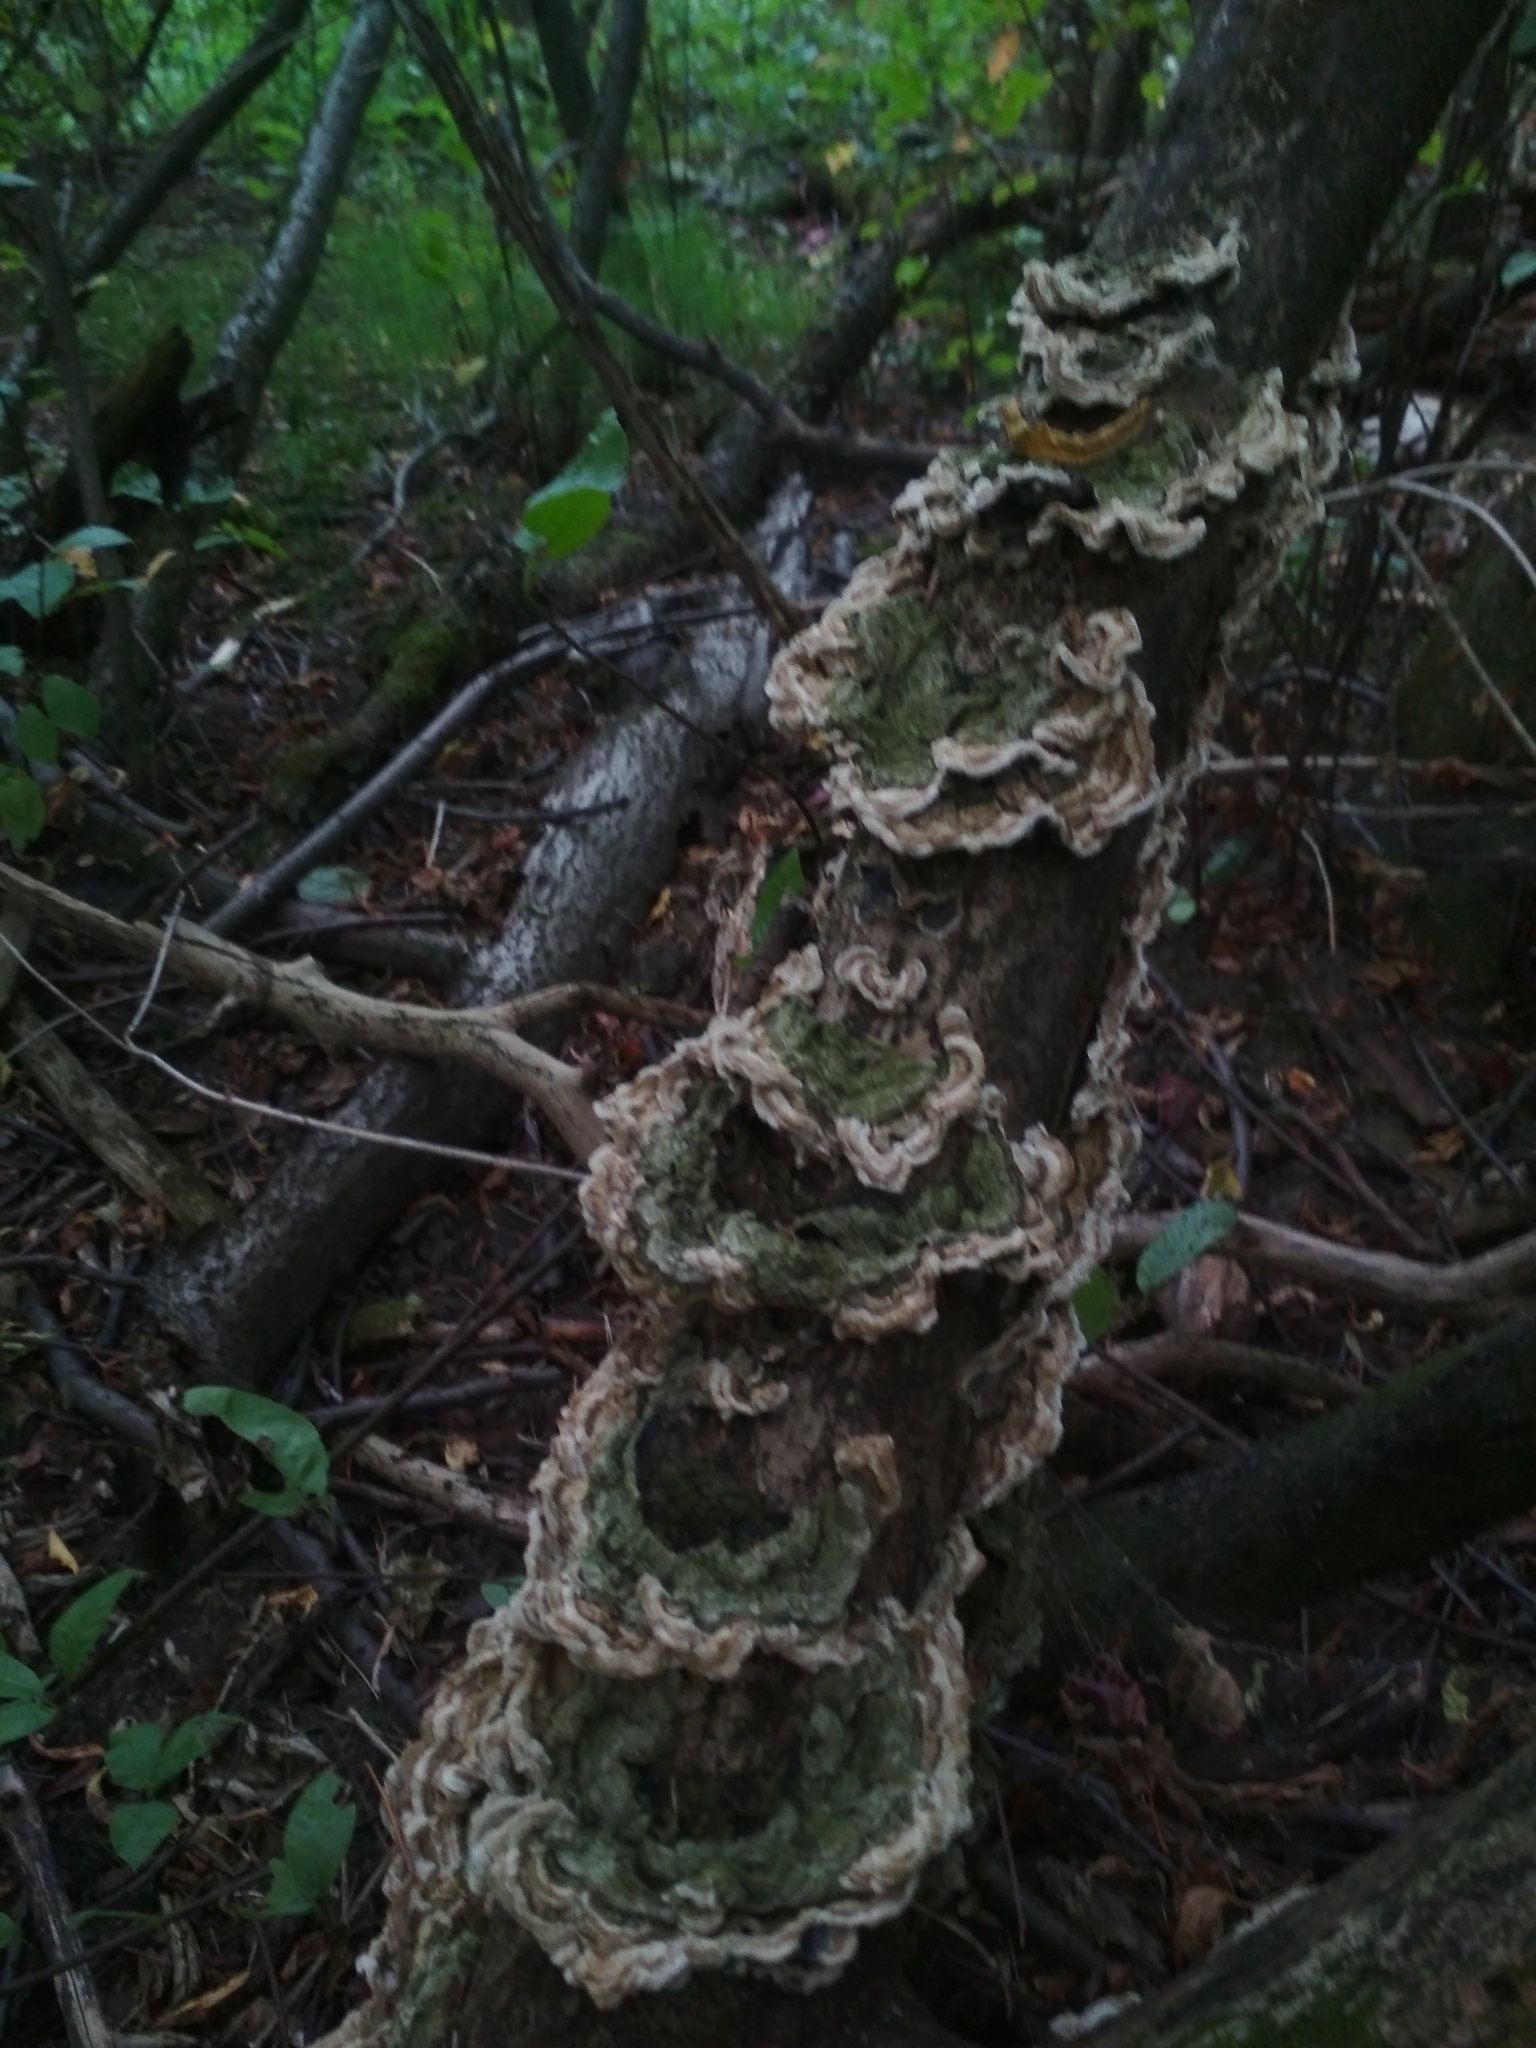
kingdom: Fungi
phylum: Basidiomycota
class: Agaricomycetes
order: Auriculariales
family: Auriculariaceae
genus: Auricularia
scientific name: Auricularia mesenterica
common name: Tripe fungus
